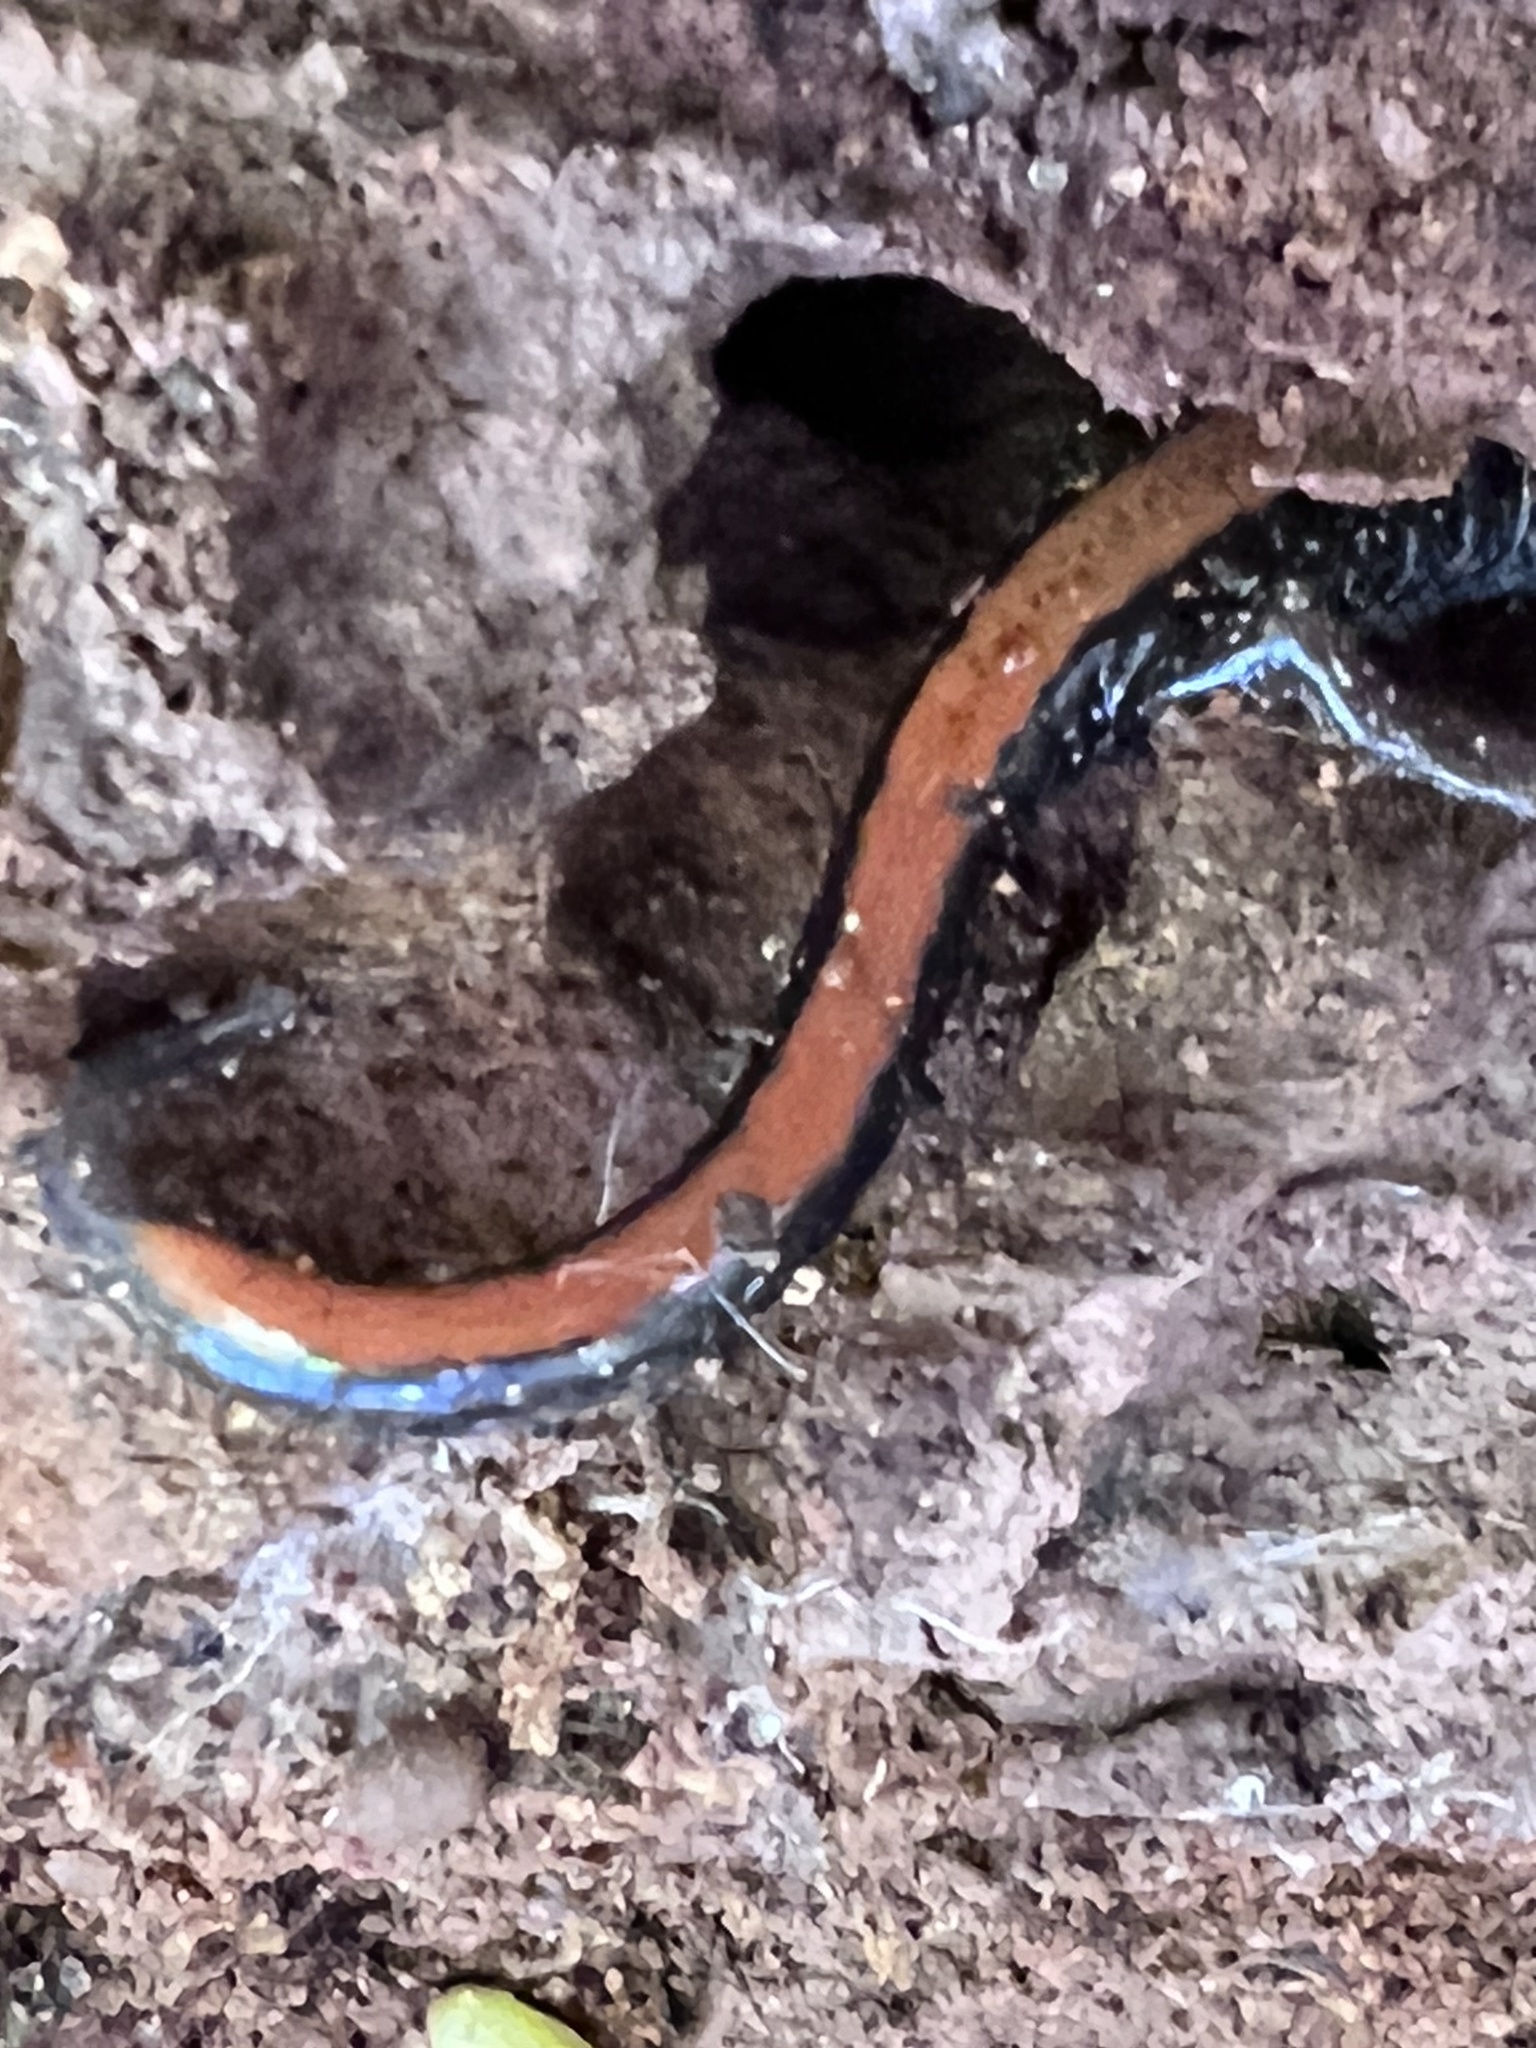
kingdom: Animalia
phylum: Chordata
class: Amphibia
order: Caudata
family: Plethodontidae
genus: Plethodon
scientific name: Plethodon cinereus
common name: Redback salamander
